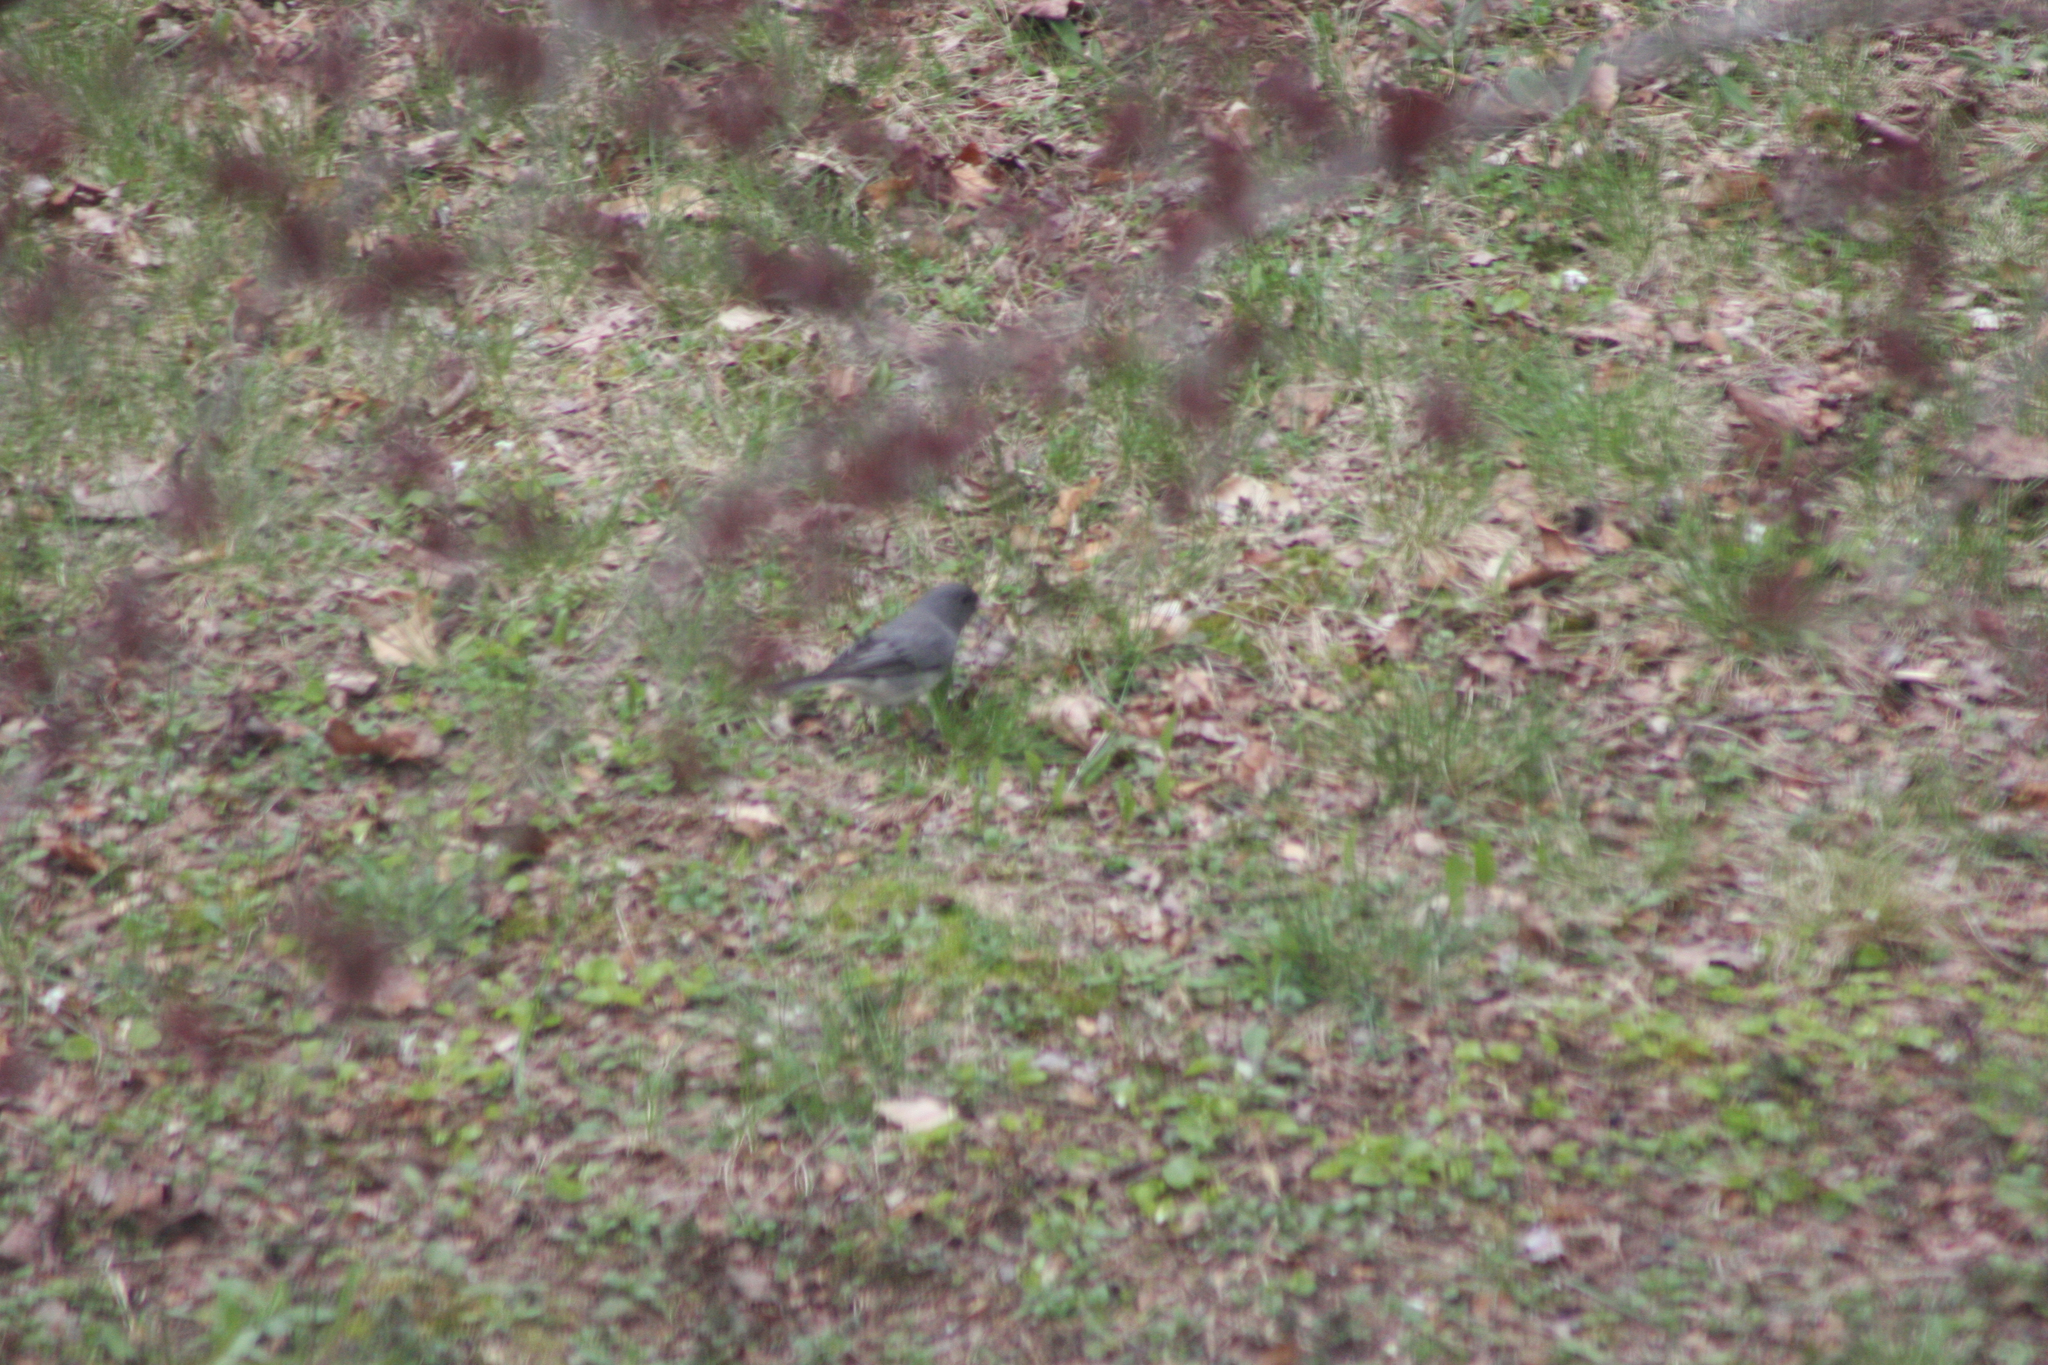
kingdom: Animalia
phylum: Chordata
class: Aves
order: Passeriformes
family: Passerellidae
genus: Junco
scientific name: Junco hyemalis
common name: Dark-eyed junco
